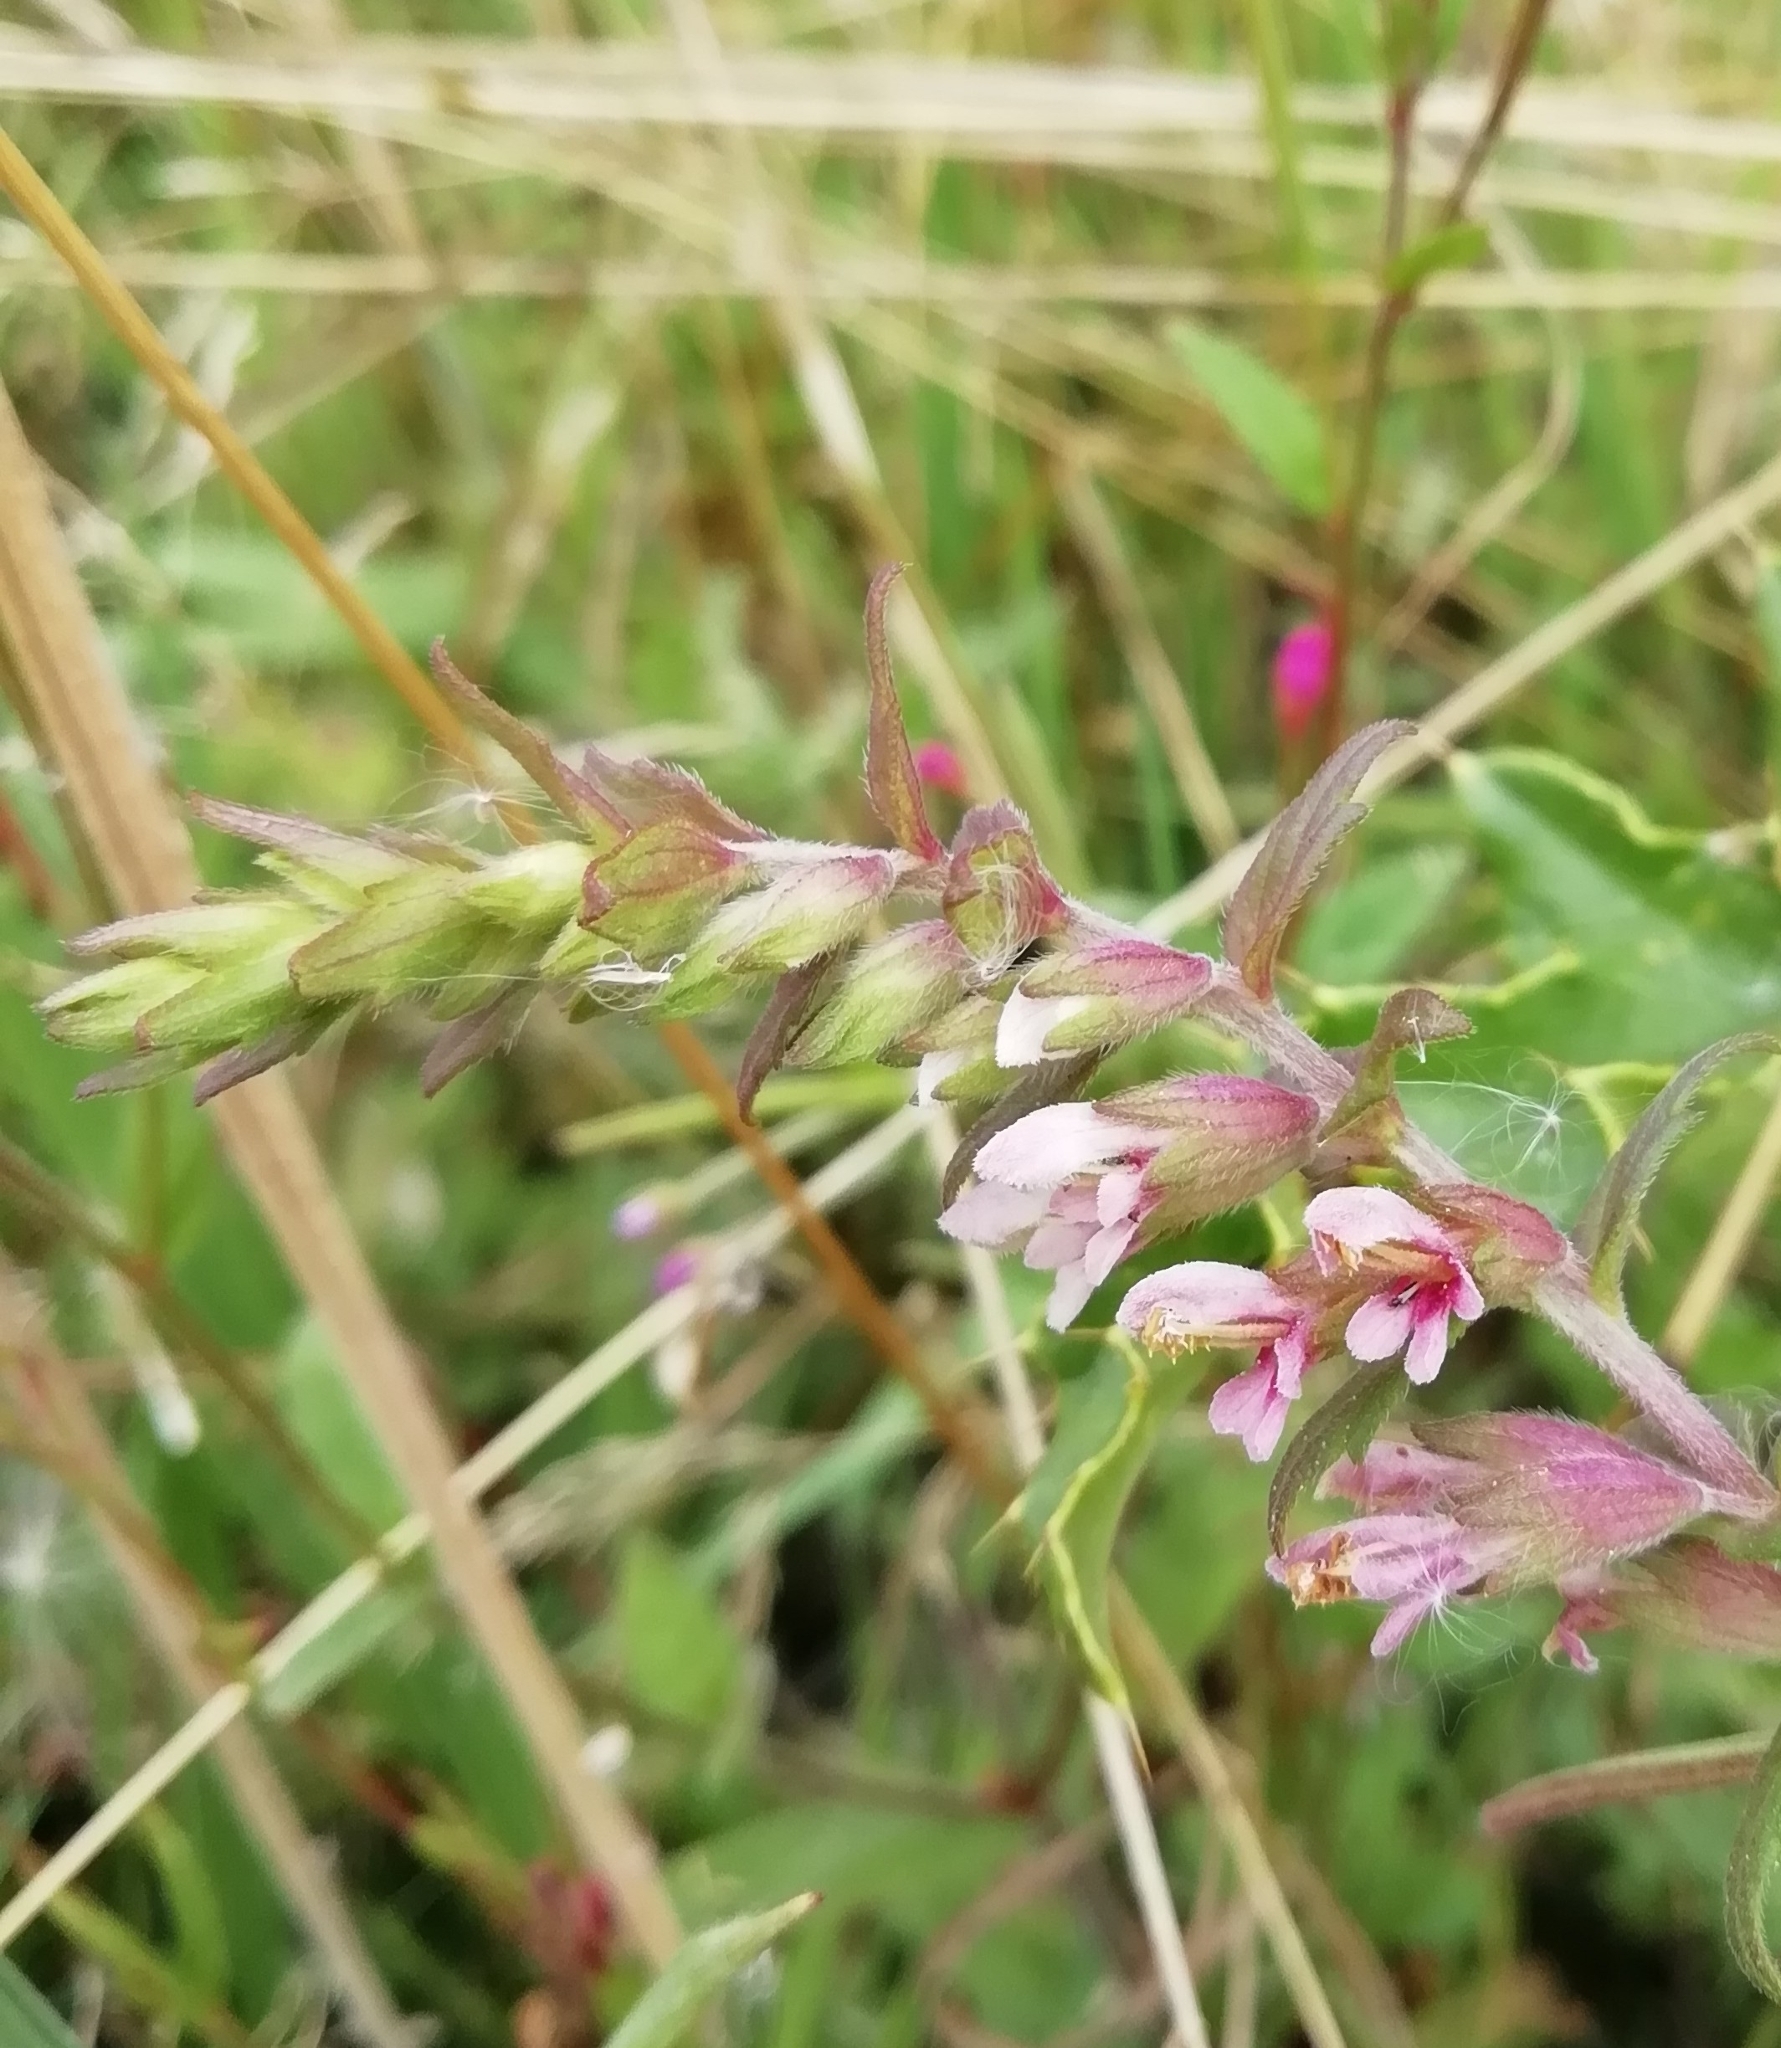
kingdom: Plantae
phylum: Tracheophyta
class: Magnoliopsida
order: Lamiales
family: Orobanchaceae
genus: Odontites
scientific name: Odontites vernus
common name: Red bartsia
